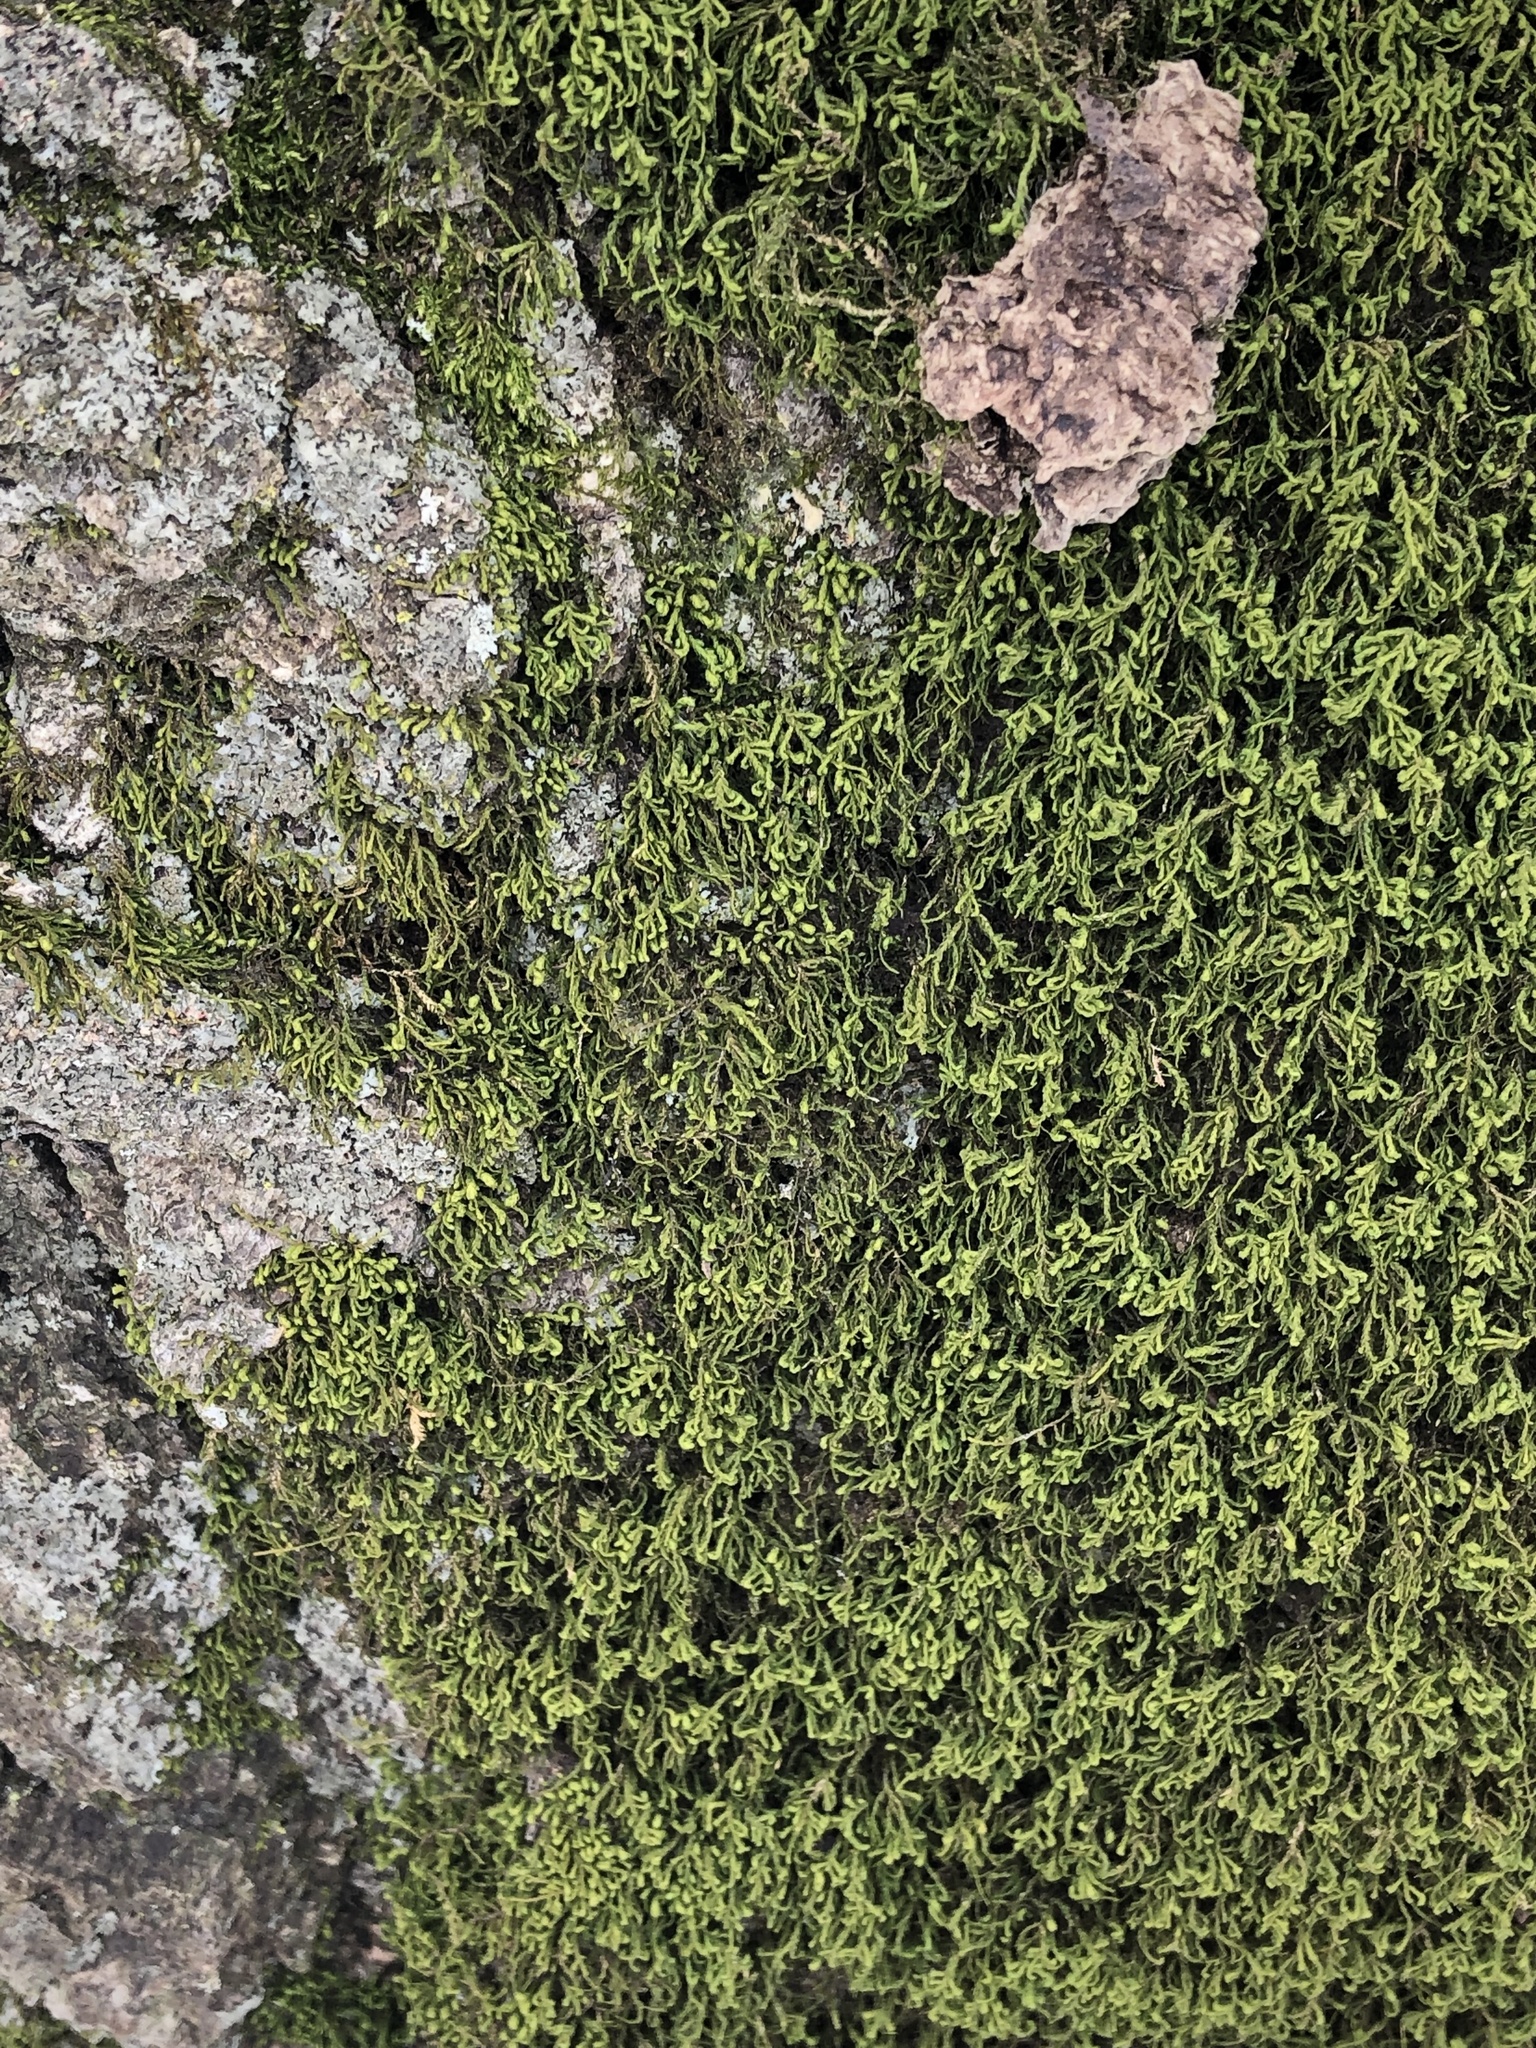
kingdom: Plantae
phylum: Bryophyta
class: Bryopsida
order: Hypnales
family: Neckeraceae
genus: Pseudanomodon
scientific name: Pseudanomodon attenuatus
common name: Tree-skirt moss
